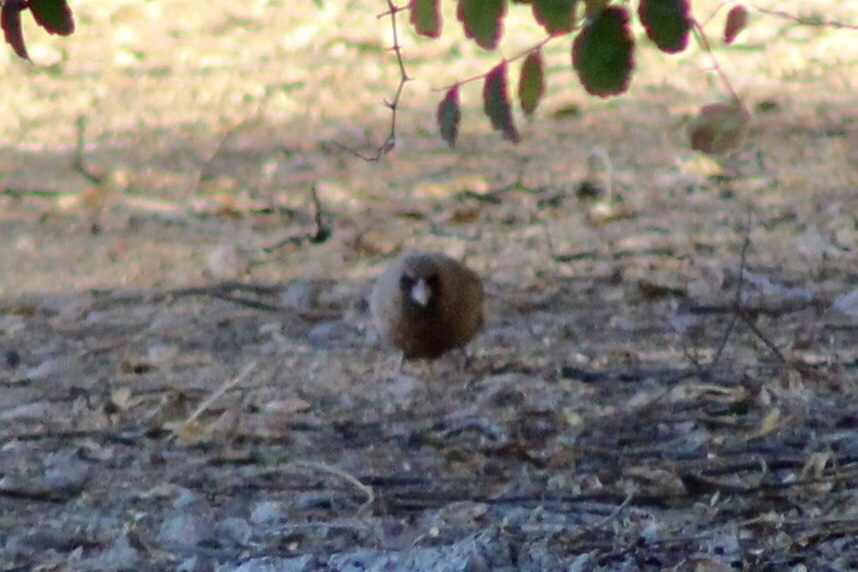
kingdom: Animalia
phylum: Chordata
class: Aves
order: Passeriformes
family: Passerellidae
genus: Melozone
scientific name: Melozone aberti
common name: Abert's towhee
